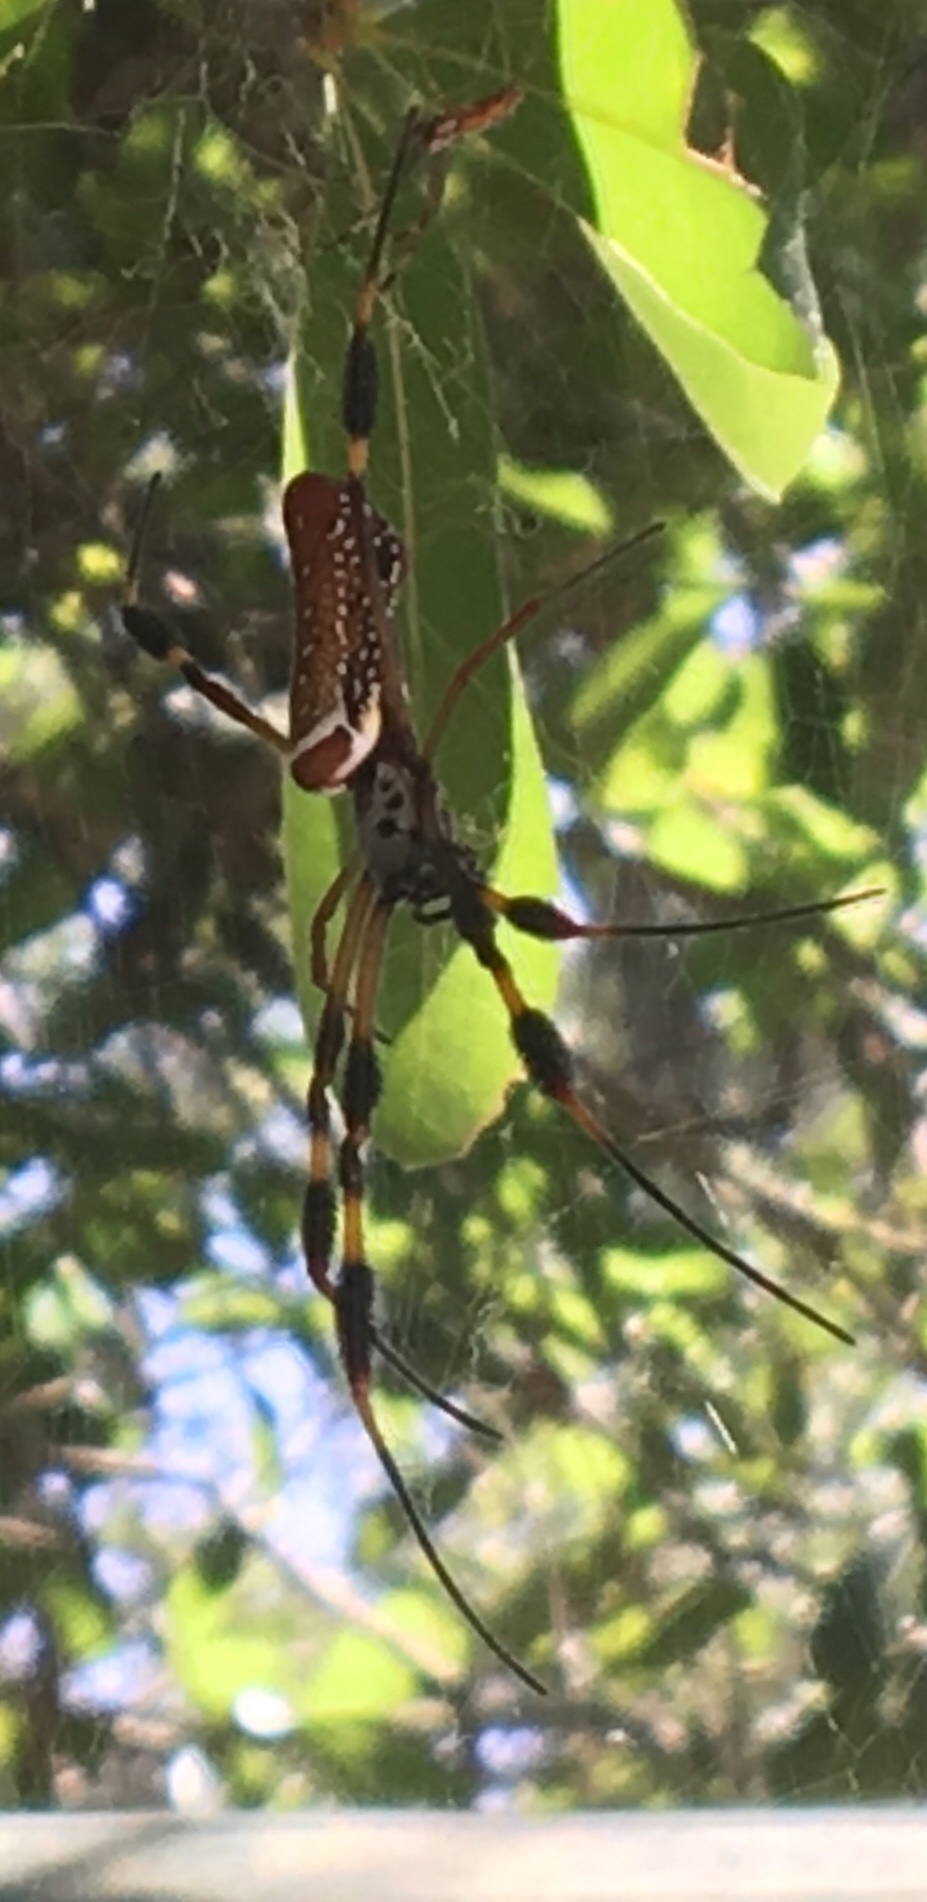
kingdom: Animalia
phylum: Arthropoda
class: Arachnida
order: Araneae
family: Araneidae
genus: Trichonephila
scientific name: Trichonephila clavipes
